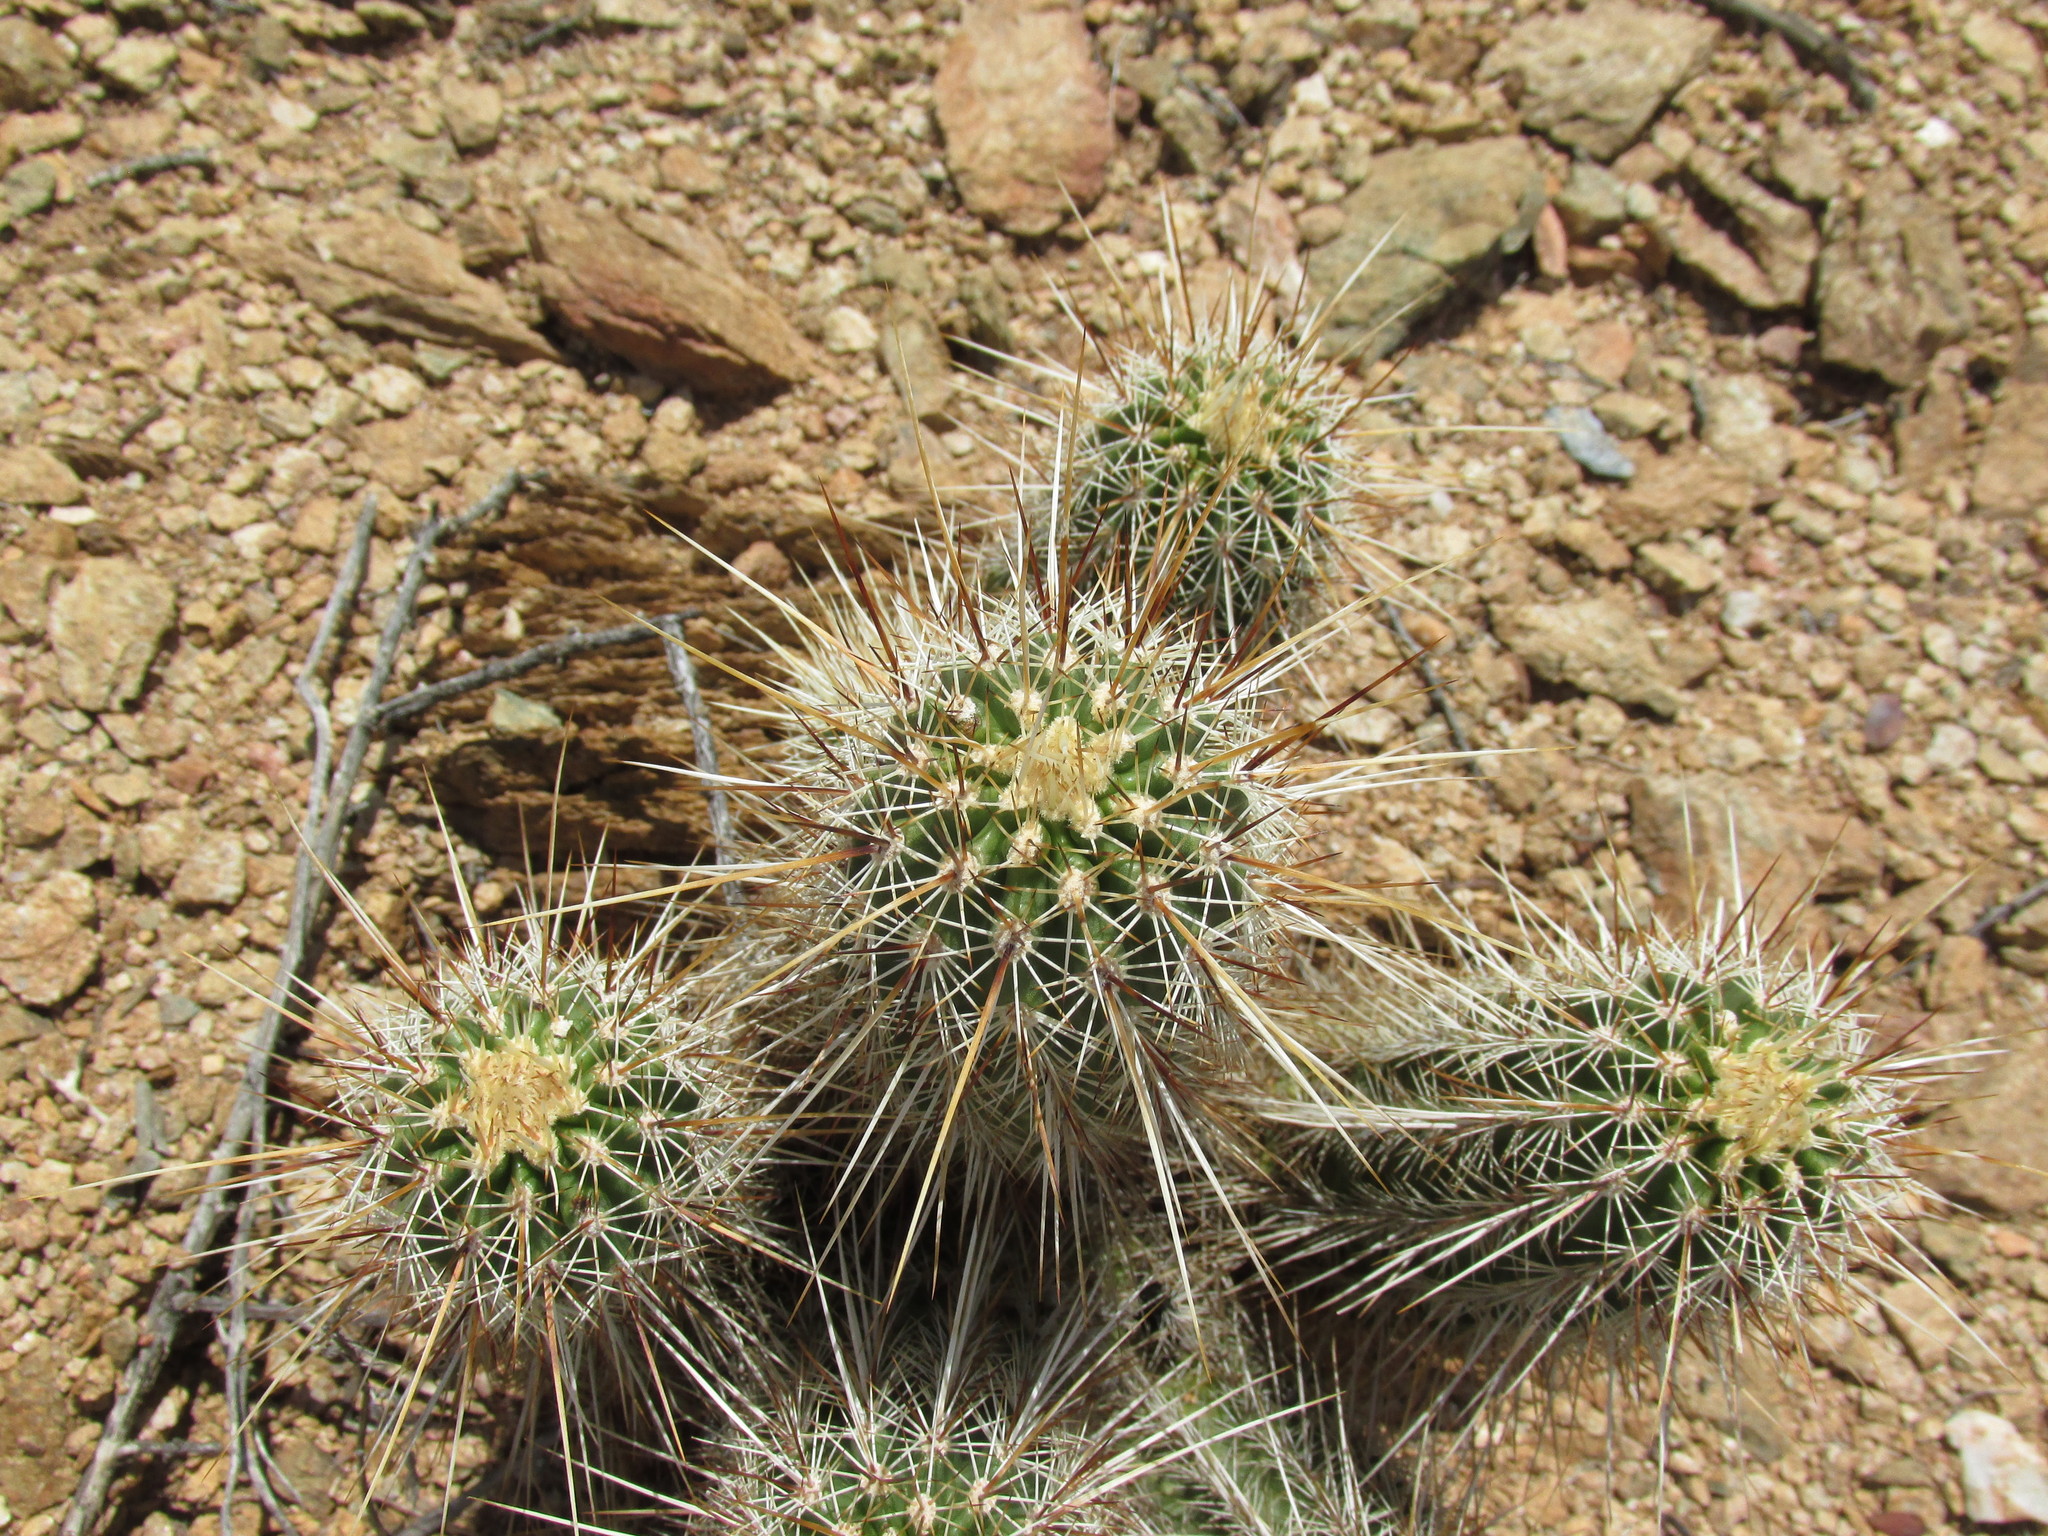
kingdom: Plantae
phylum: Tracheophyta
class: Magnoliopsida
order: Caryophyllales
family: Cactaceae
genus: Echinocereus
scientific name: Echinocereus engelmannii
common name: Engelmann's hedgehog cactus
